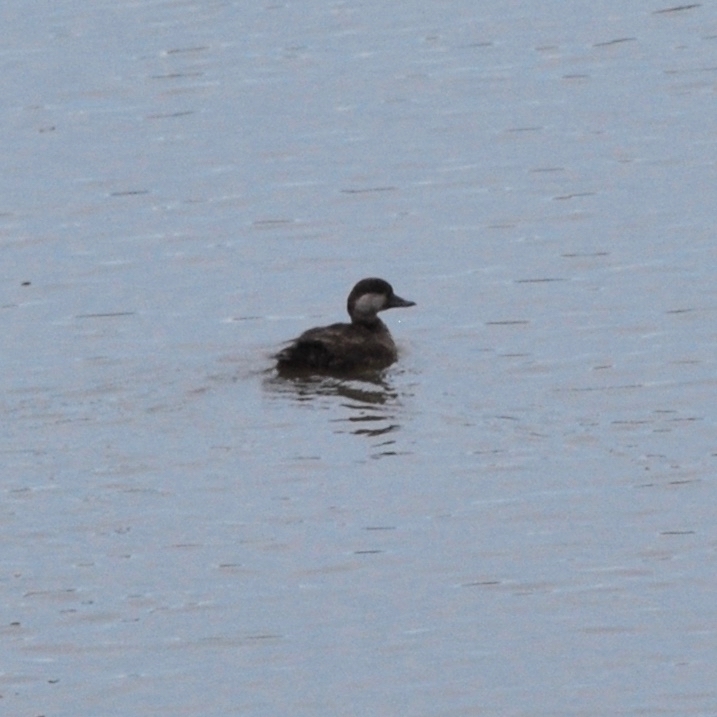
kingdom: Animalia
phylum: Chordata
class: Aves
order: Anseriformes
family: Anatidae
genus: Melanitta
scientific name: Melanitta americana
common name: Black scoter
